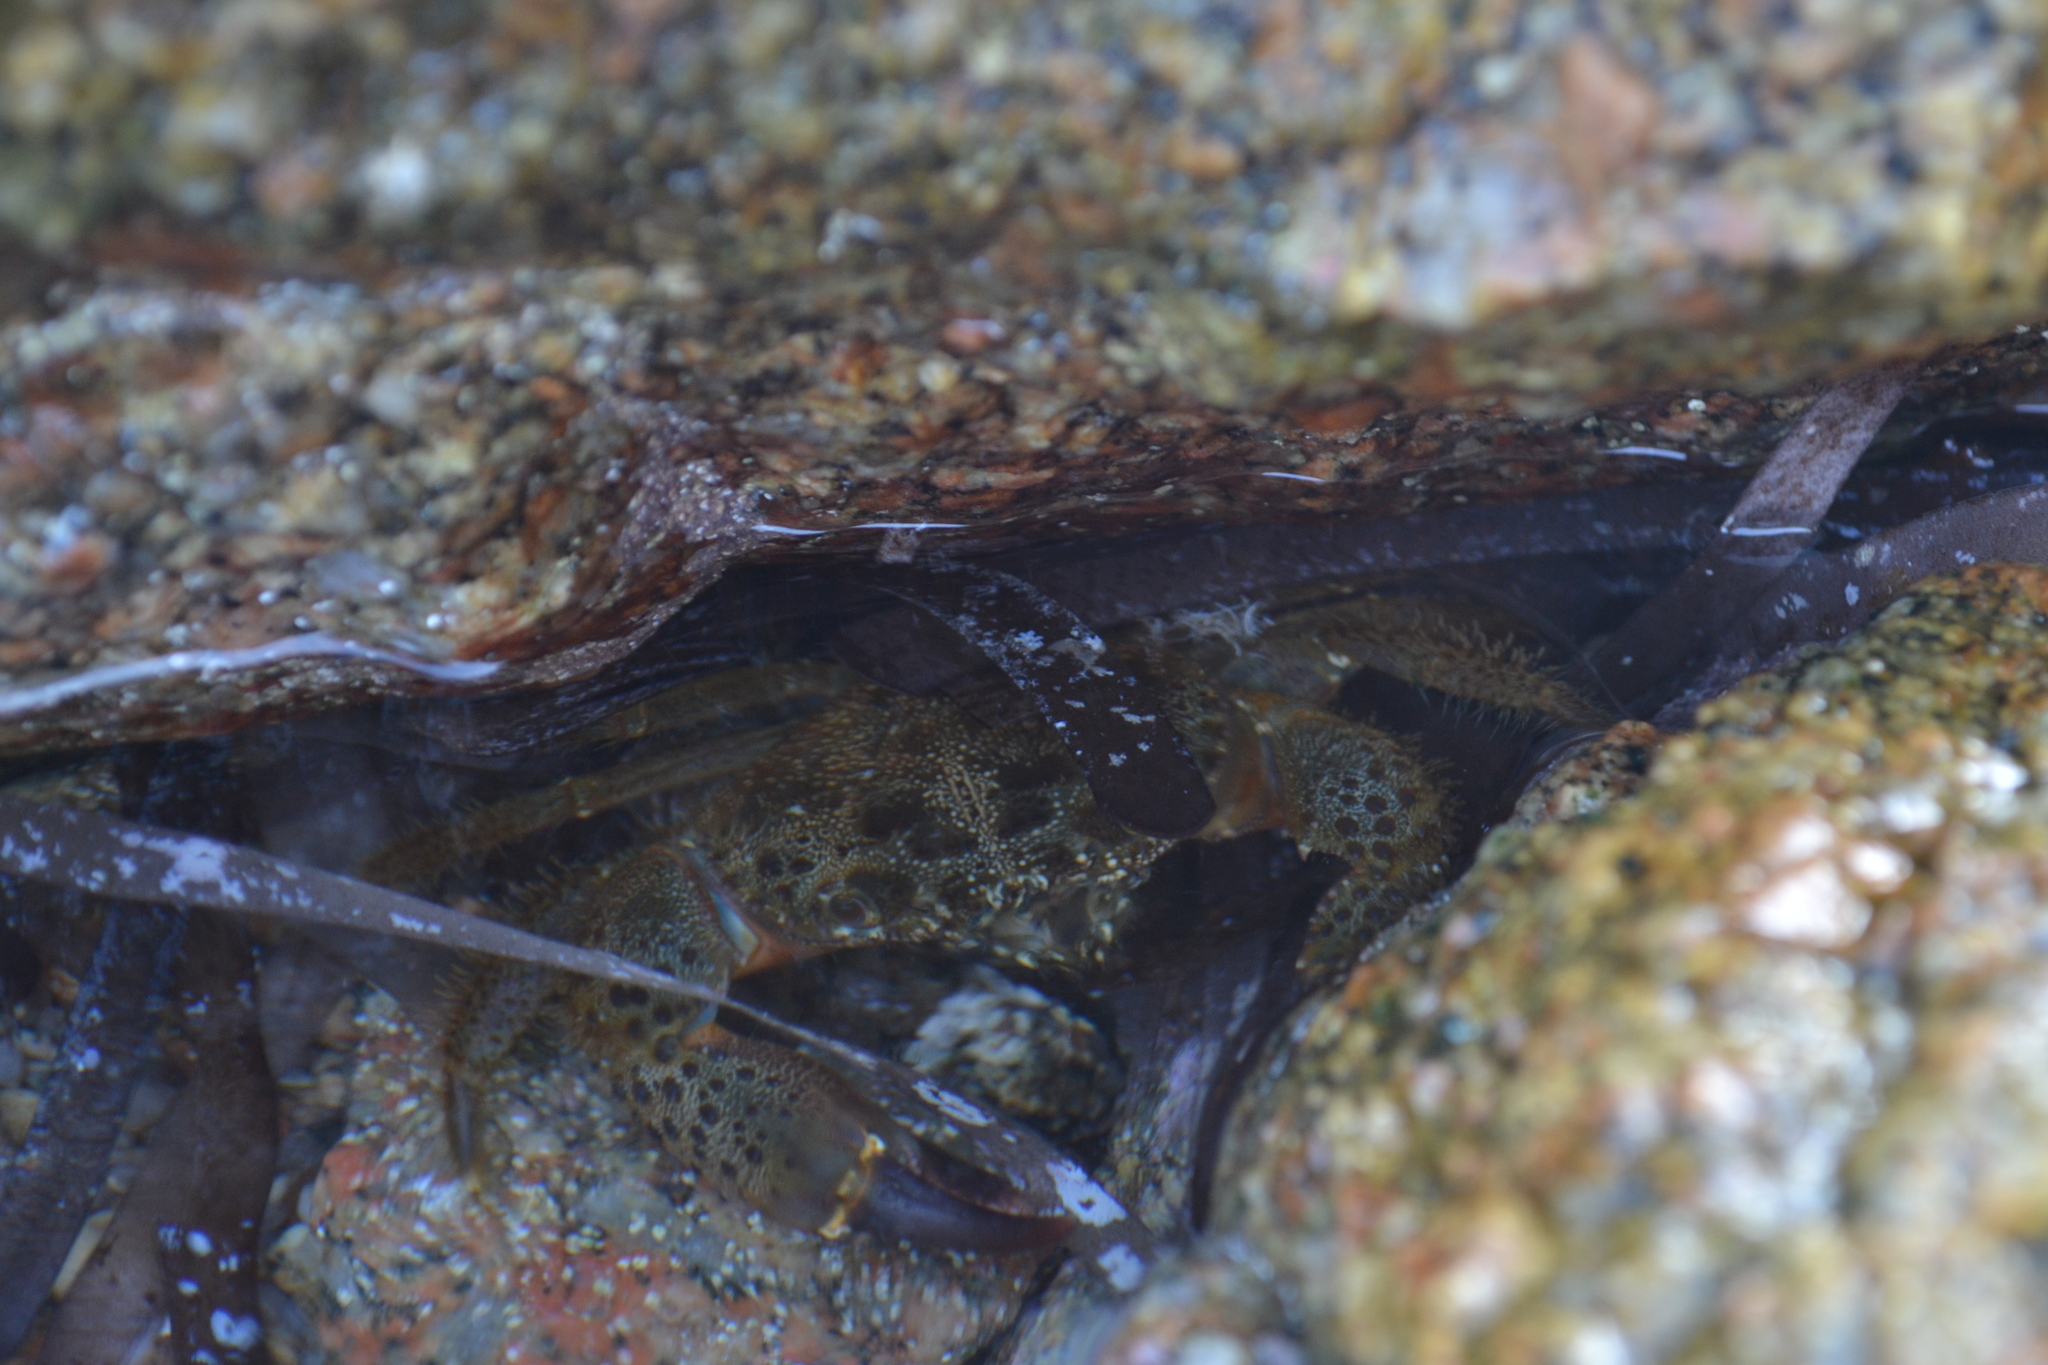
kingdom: Animalia
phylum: Arthropoda
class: Malacostraca
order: Decapoda
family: Eriphiidae
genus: Eriphia
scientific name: Eriphia verrucosa
